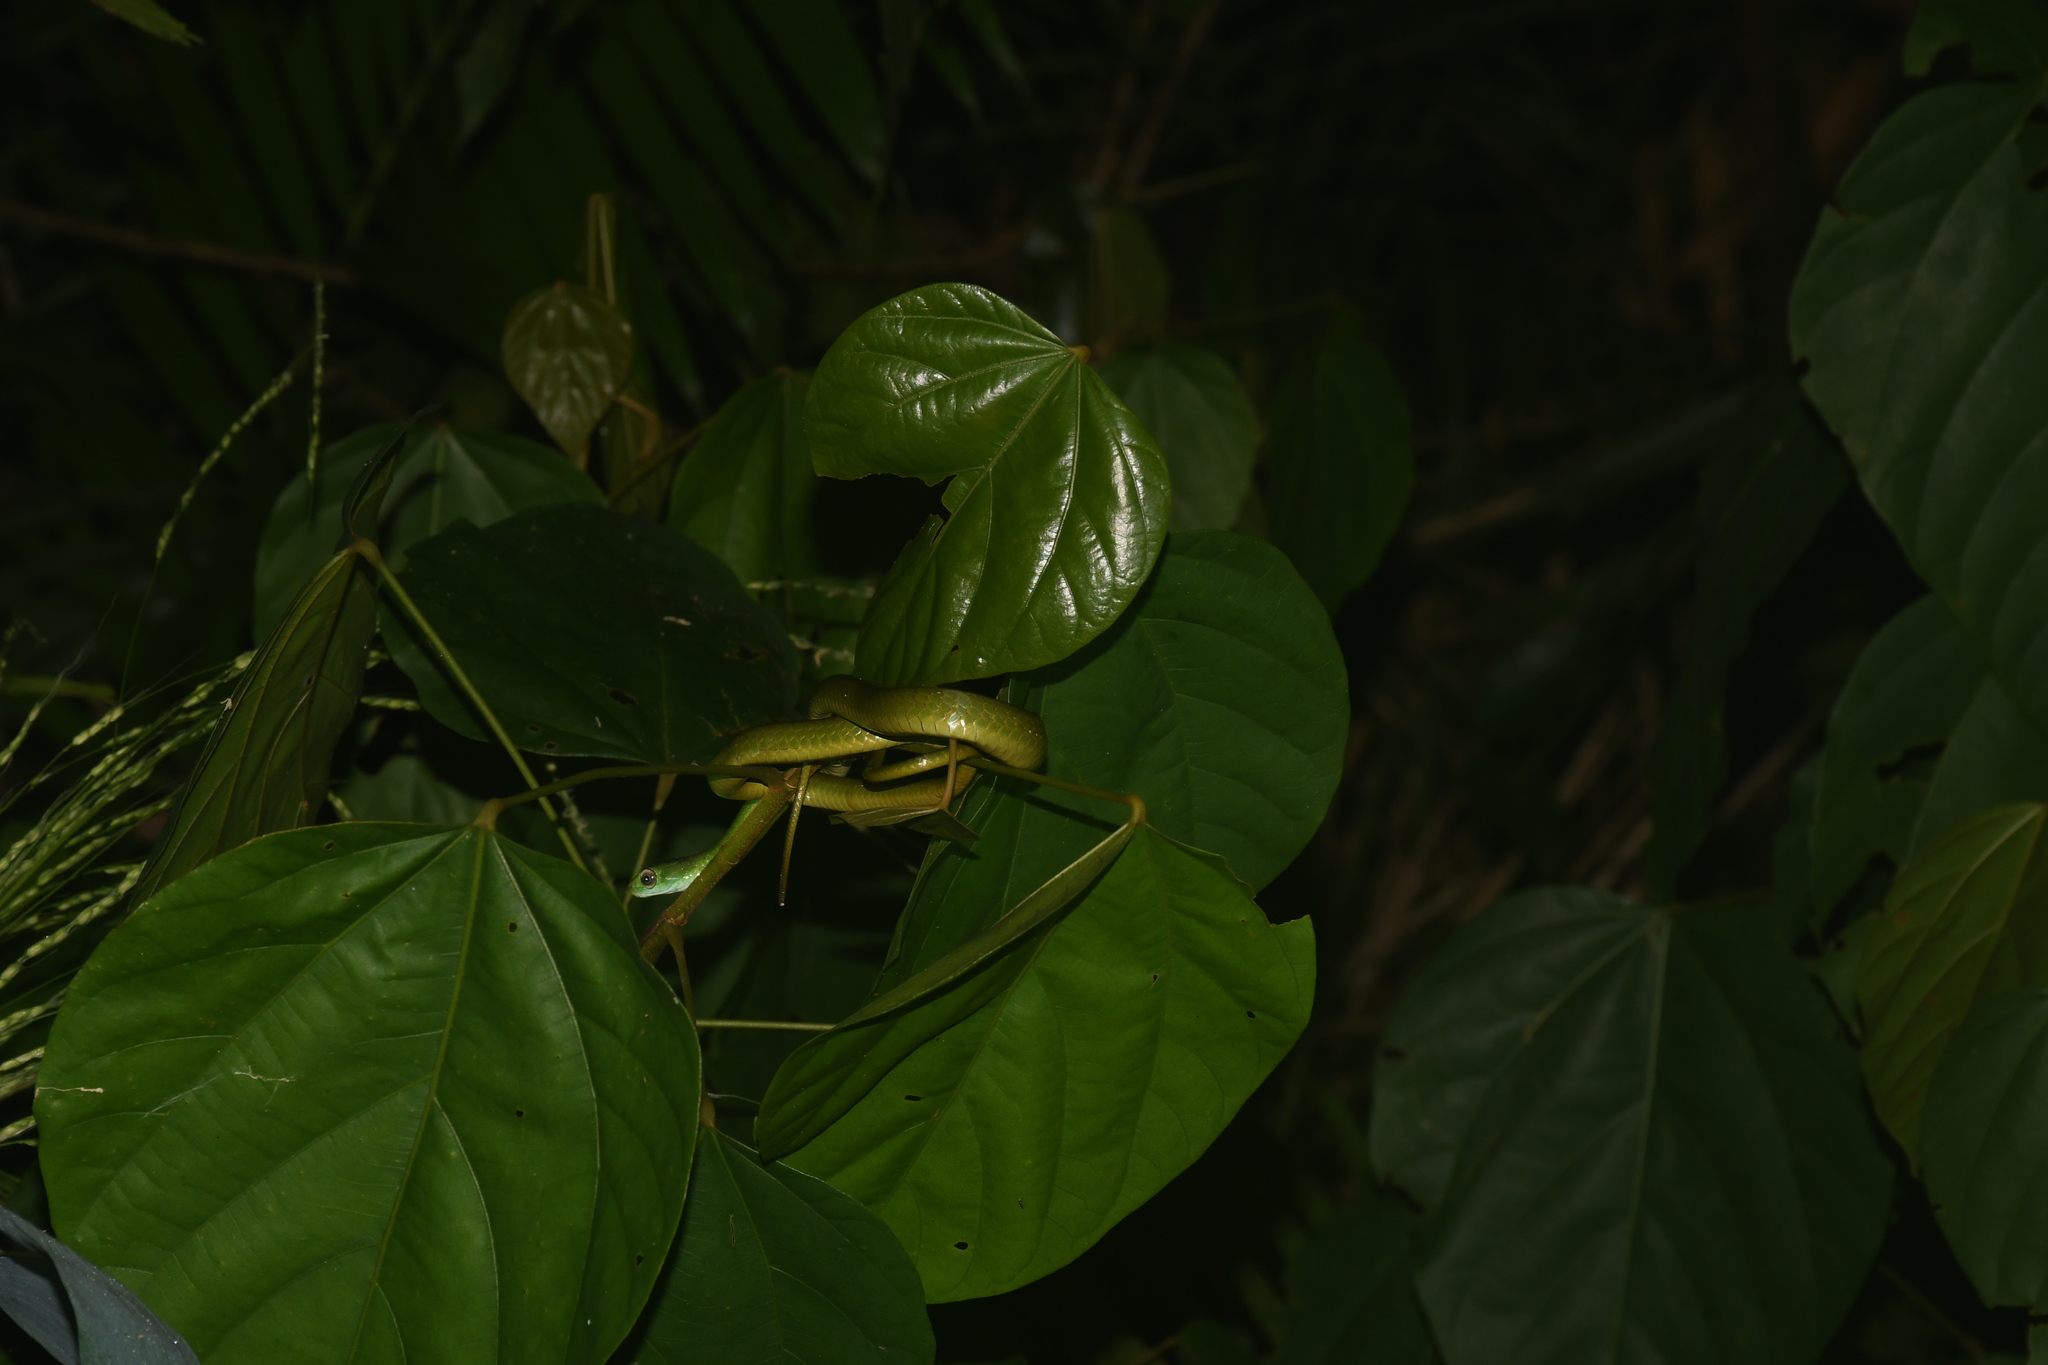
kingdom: Animalia
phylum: Chordata
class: Squamata
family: Colubridae
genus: Chironius
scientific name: Chironius scurrulus
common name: Wagler's sipo
